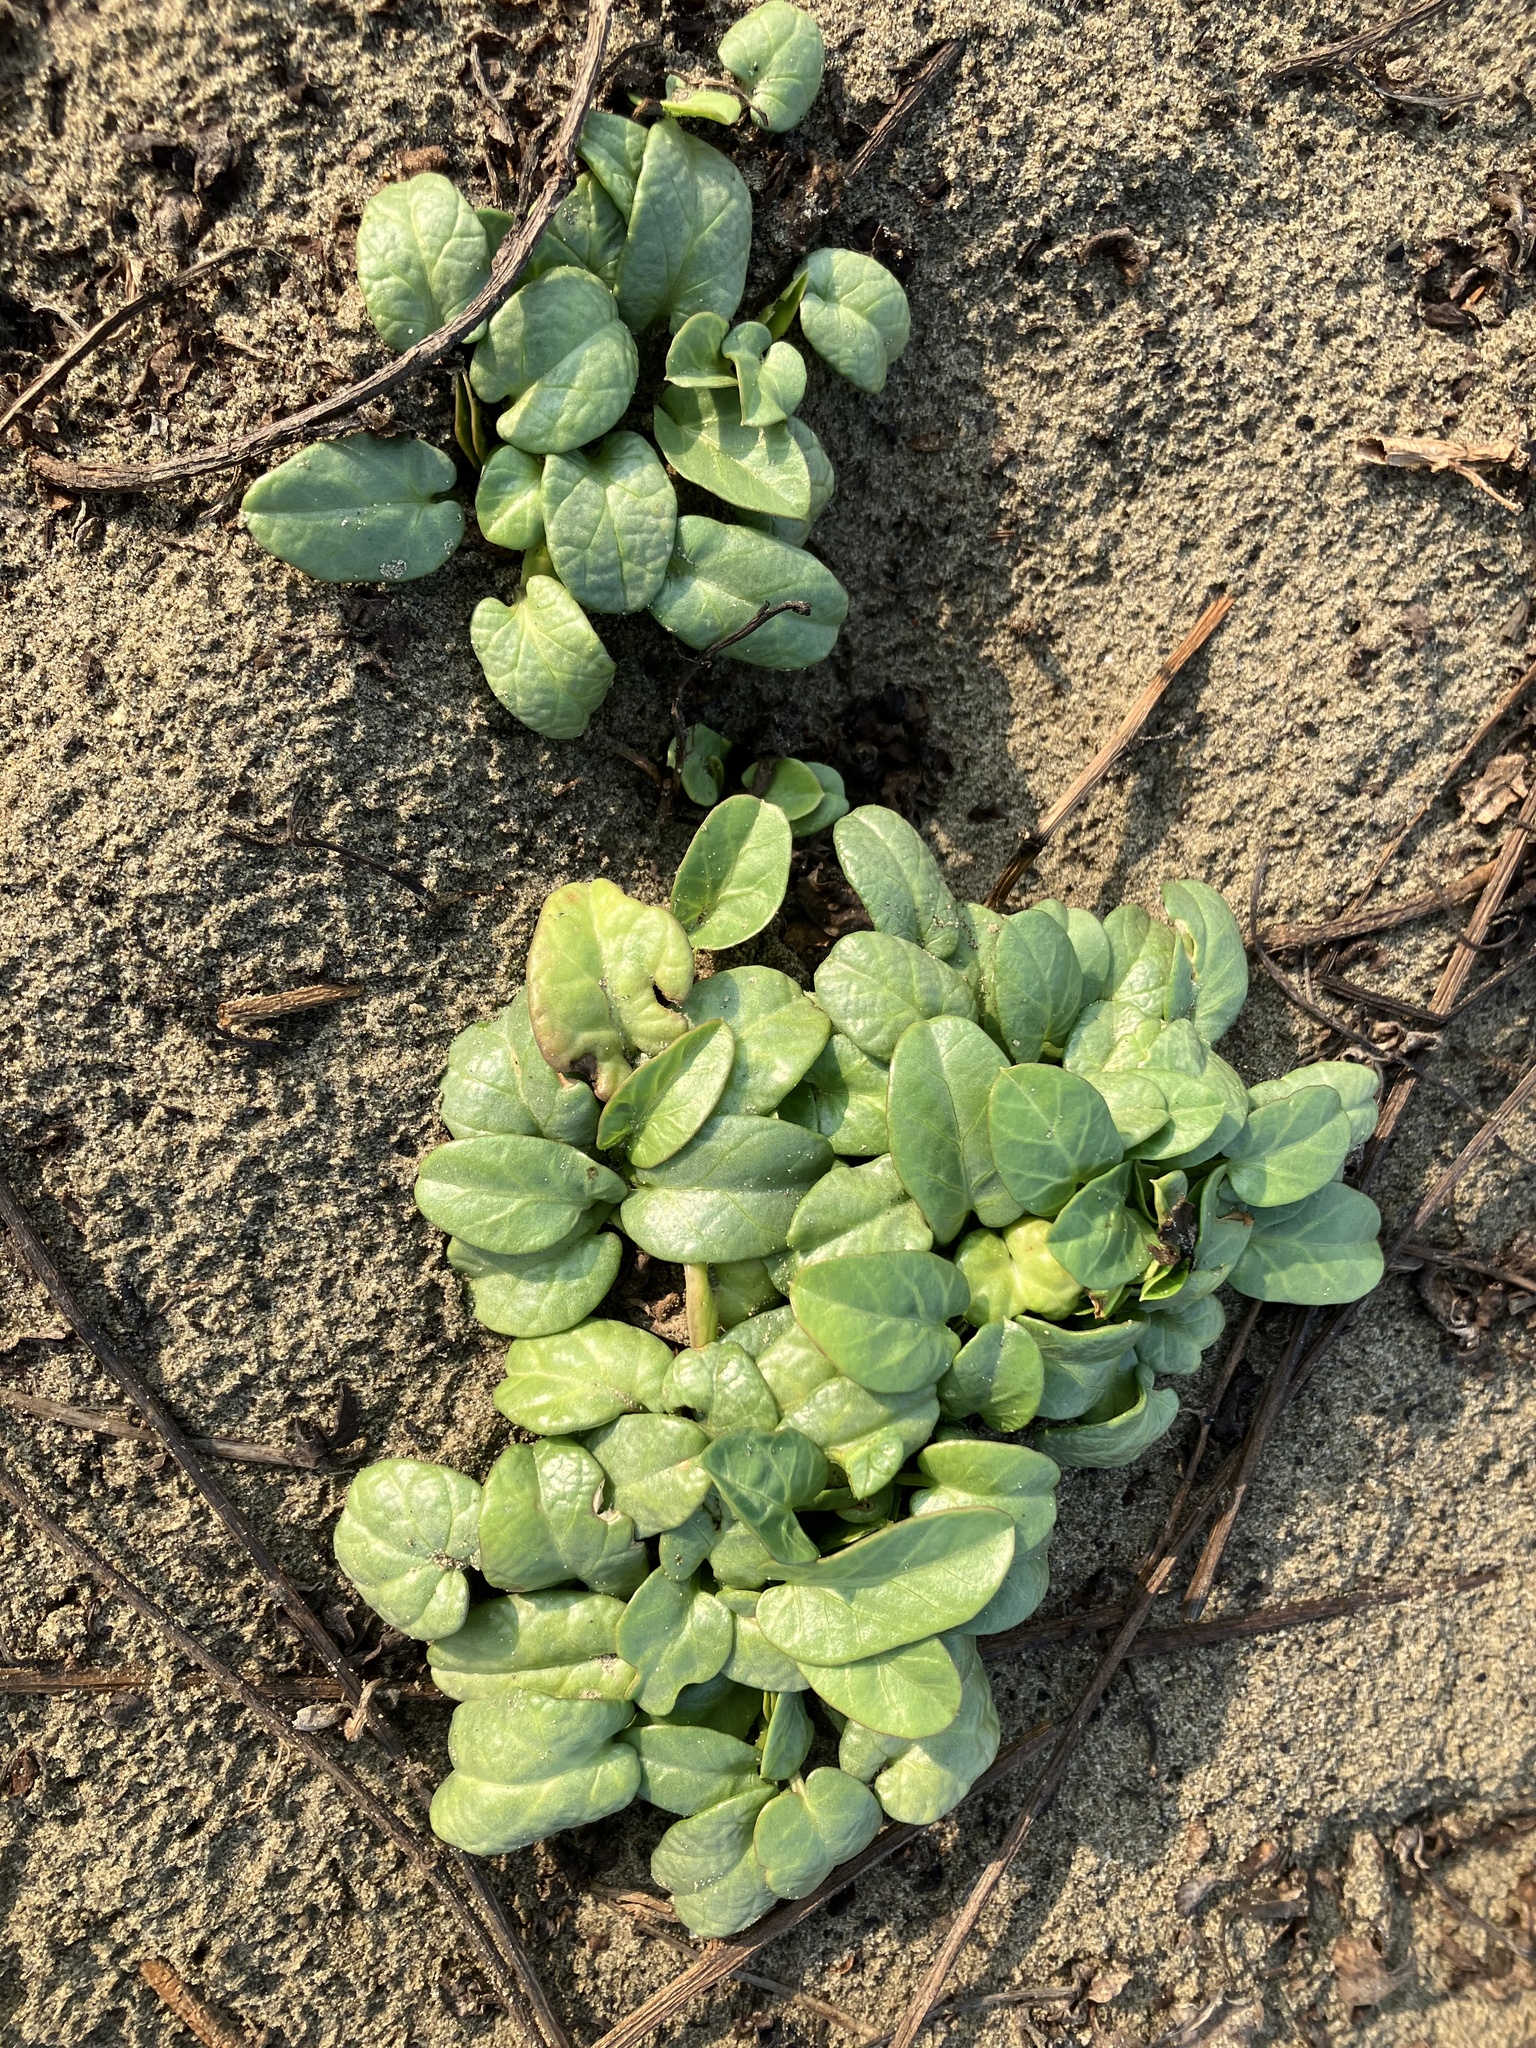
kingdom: Plantae
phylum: Tracheophyta
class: Magnoliopsida
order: Solanales
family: Convolvulaceae
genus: Ipomoea
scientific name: Ipomoea imperati
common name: Fiddle-leaf morning-glory
